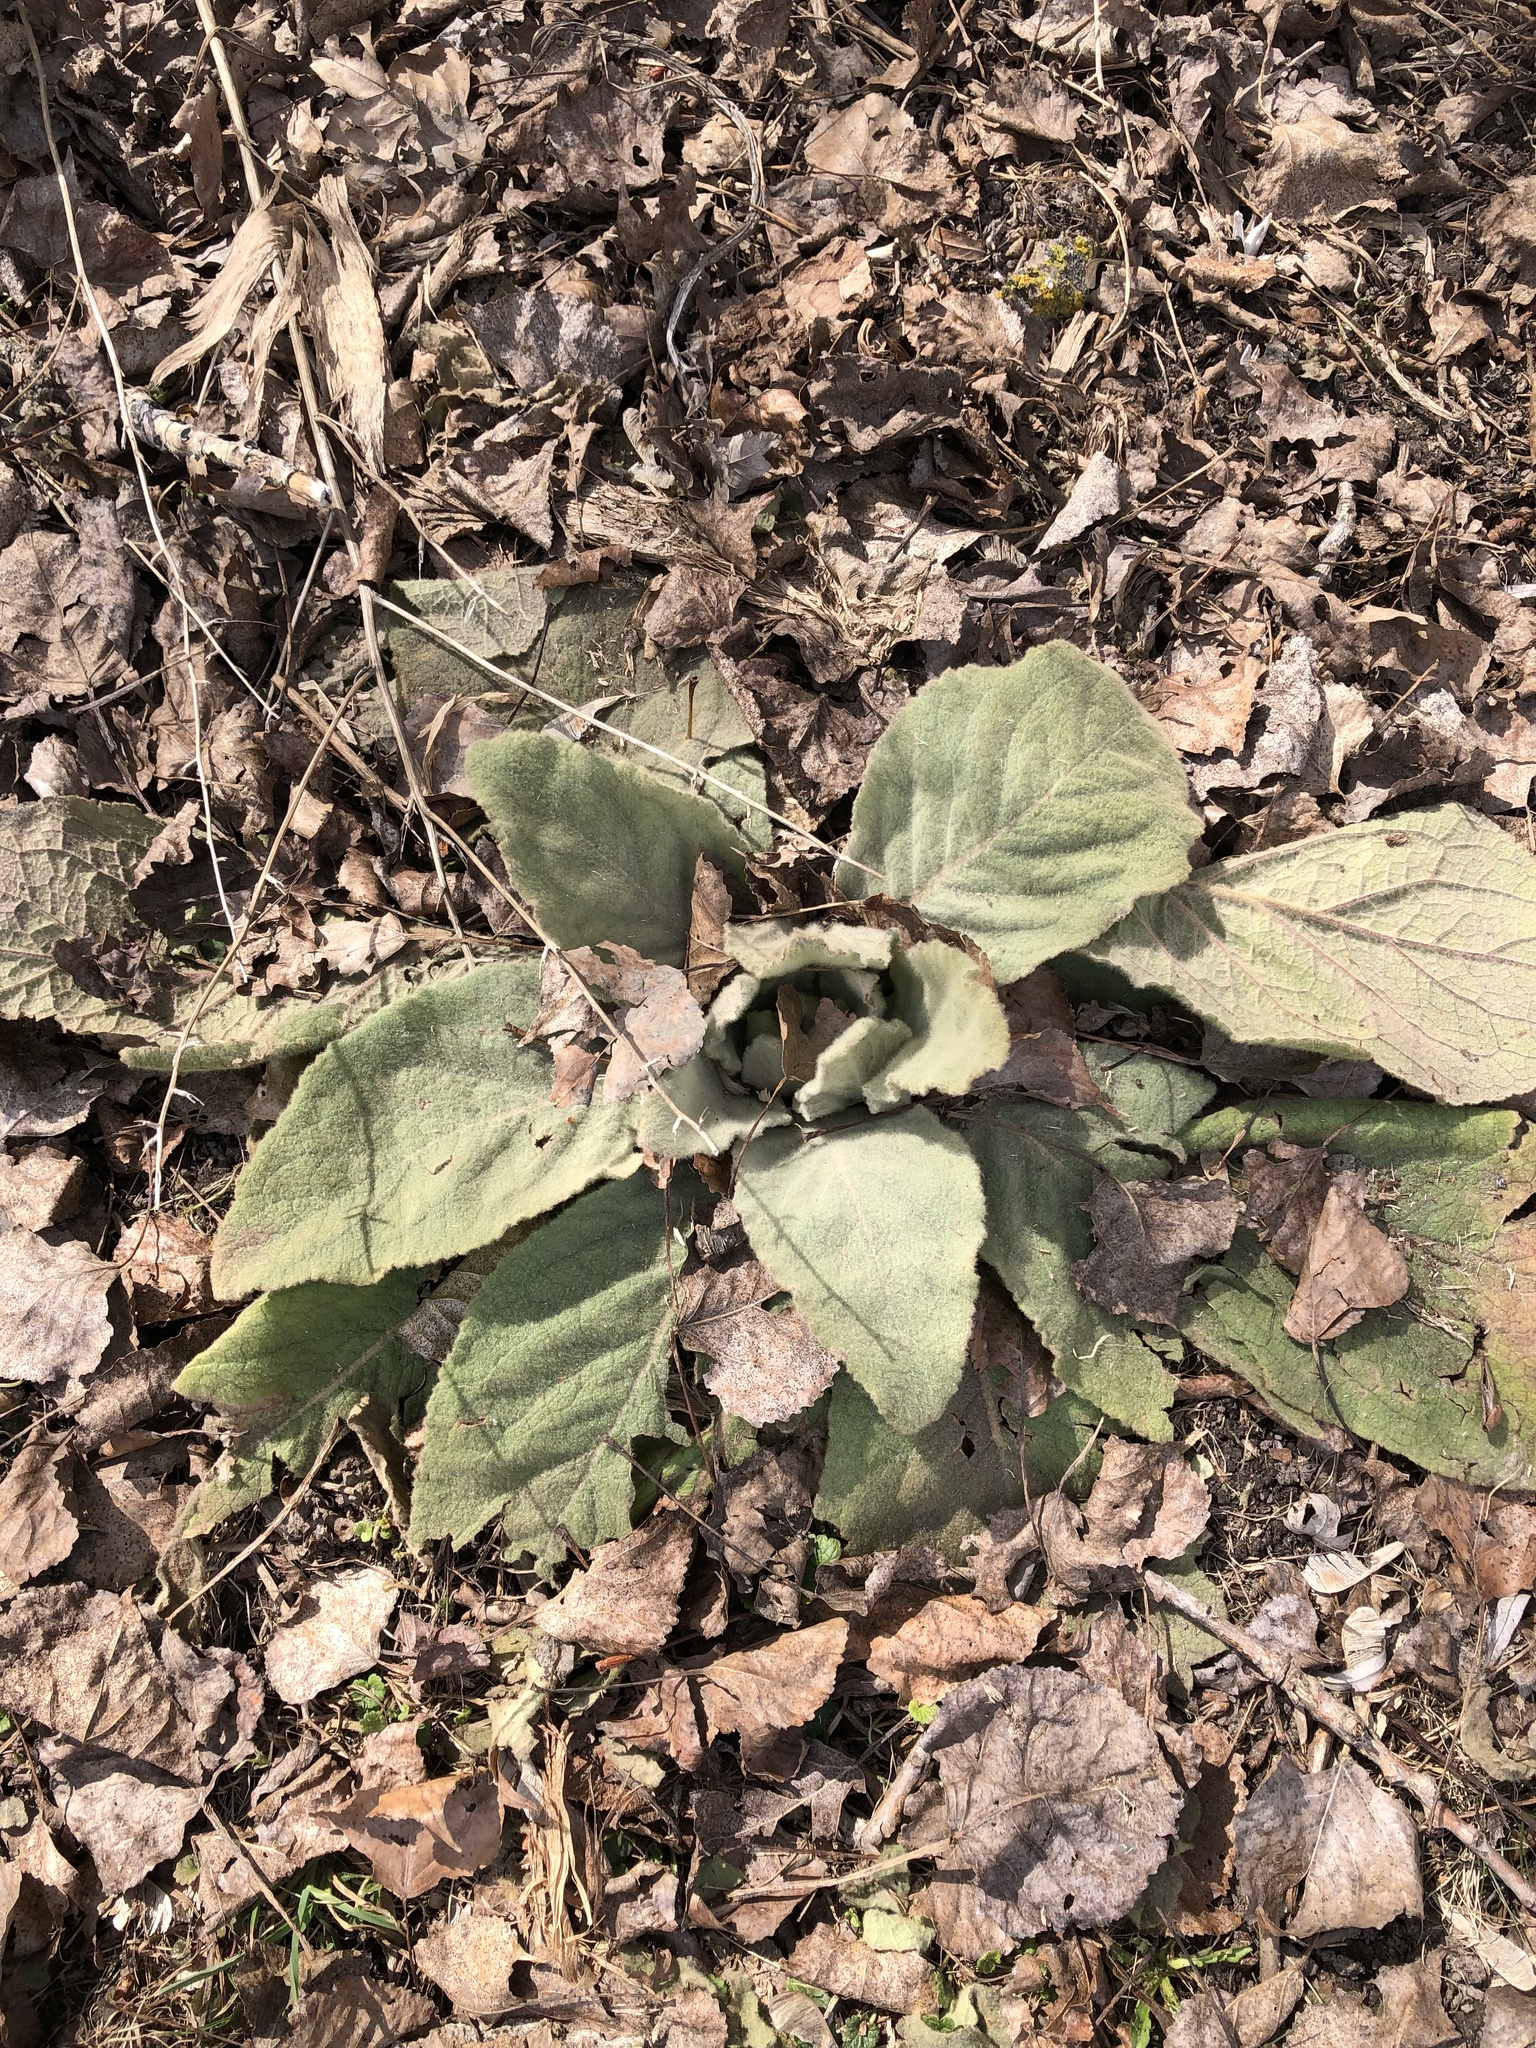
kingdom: Plantae
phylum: Tracheophyta
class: Magnoliopsida
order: Lamiales
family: Scrophulariaceae
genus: Verbascum
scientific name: Verbascum thapsus
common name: Common mullein
